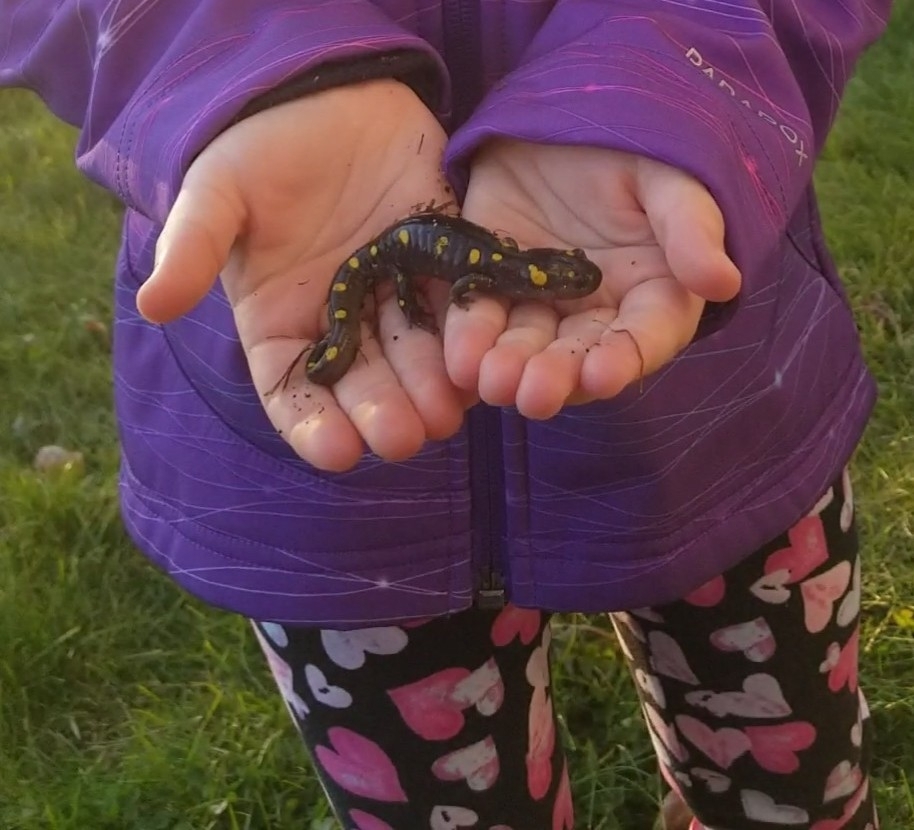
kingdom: Animalia
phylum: Chordata
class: Amphibia
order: Caudata
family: Ambystomatidae
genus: Ambystoma
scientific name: Ambystoma maculatum
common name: Spotted salamander
